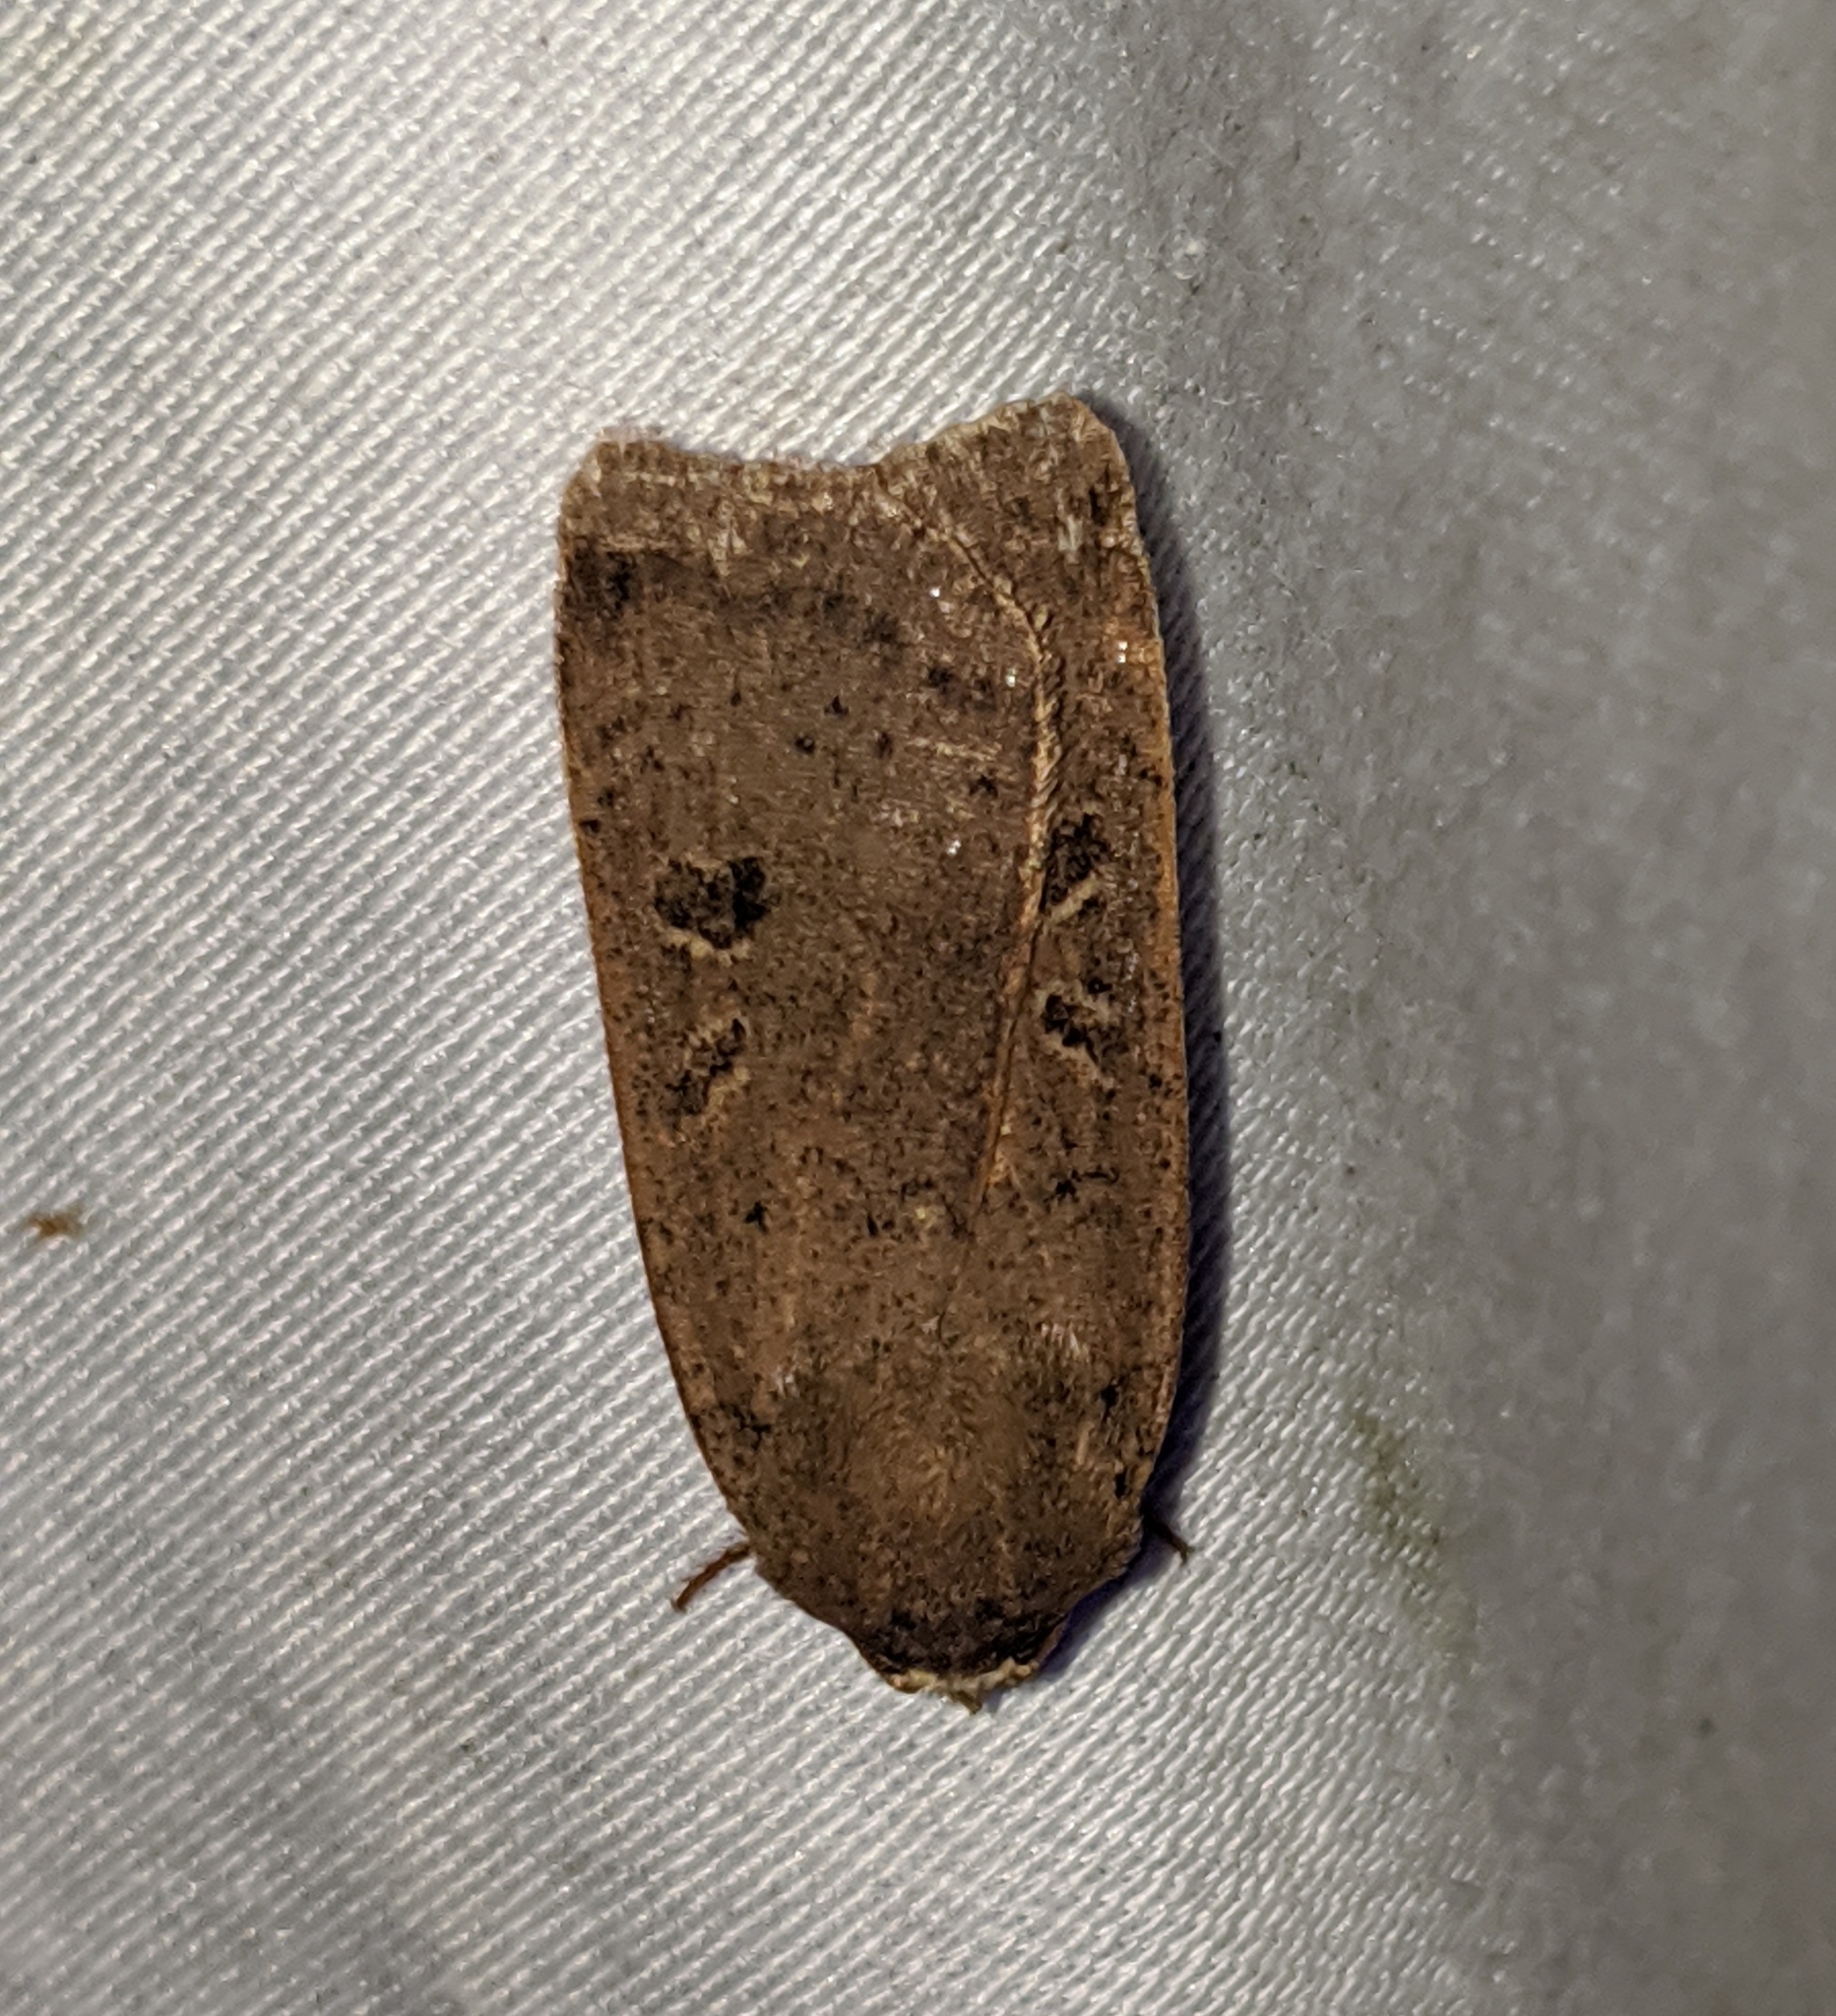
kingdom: Animalia
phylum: Arthropoda
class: Insecta
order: Lepidoptera
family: Noctuidae
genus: Noctua
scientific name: Noctua comes
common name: Lesser yellow underwing
